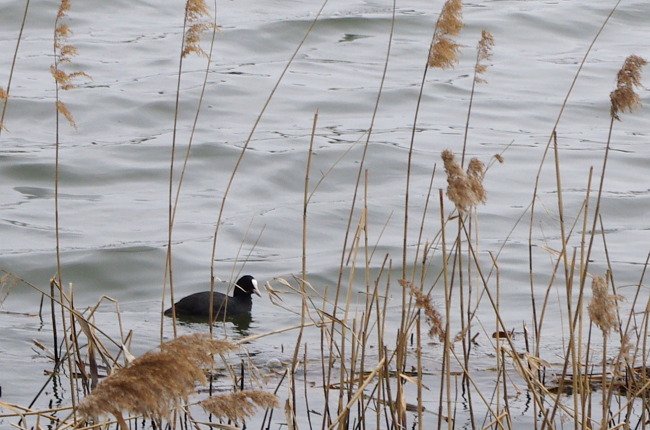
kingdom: Animalia
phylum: Chordata
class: Aves
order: Gruiformes
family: Rallidae
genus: Fulica
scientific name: Fulica atra
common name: Eurasian coot
